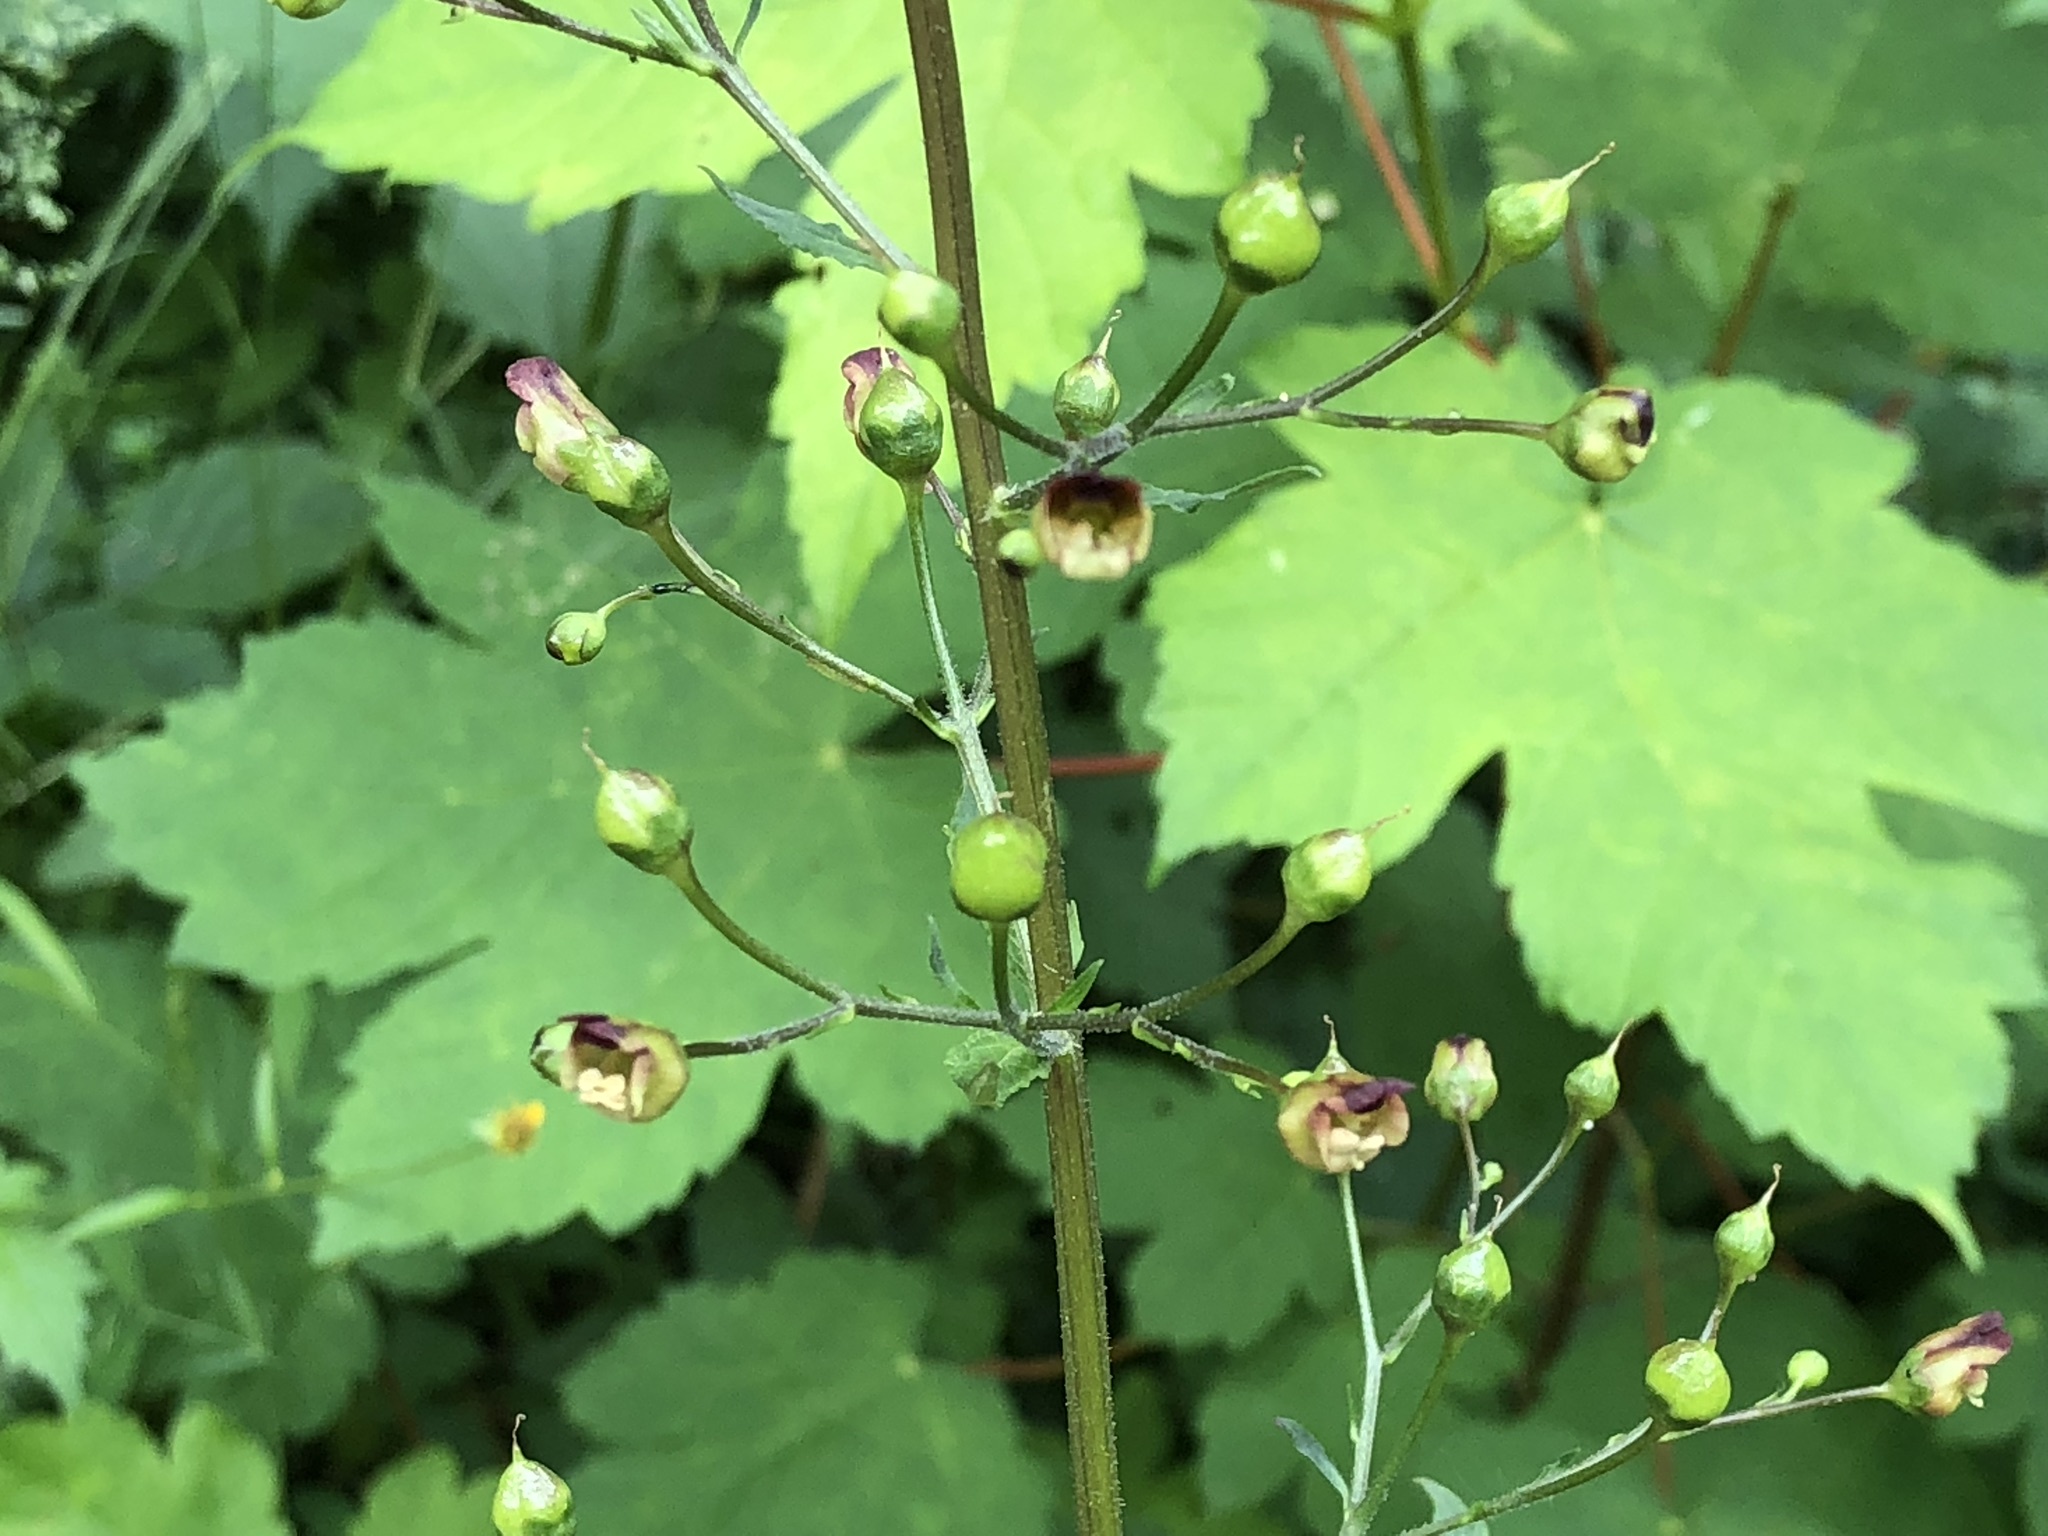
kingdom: Plantae
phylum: Tracheophyta
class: Magnoliopsida
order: Lamiales
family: Scrophulariaceae
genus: Scrophularia
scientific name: Scrophularia nodosa
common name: Common figwort
